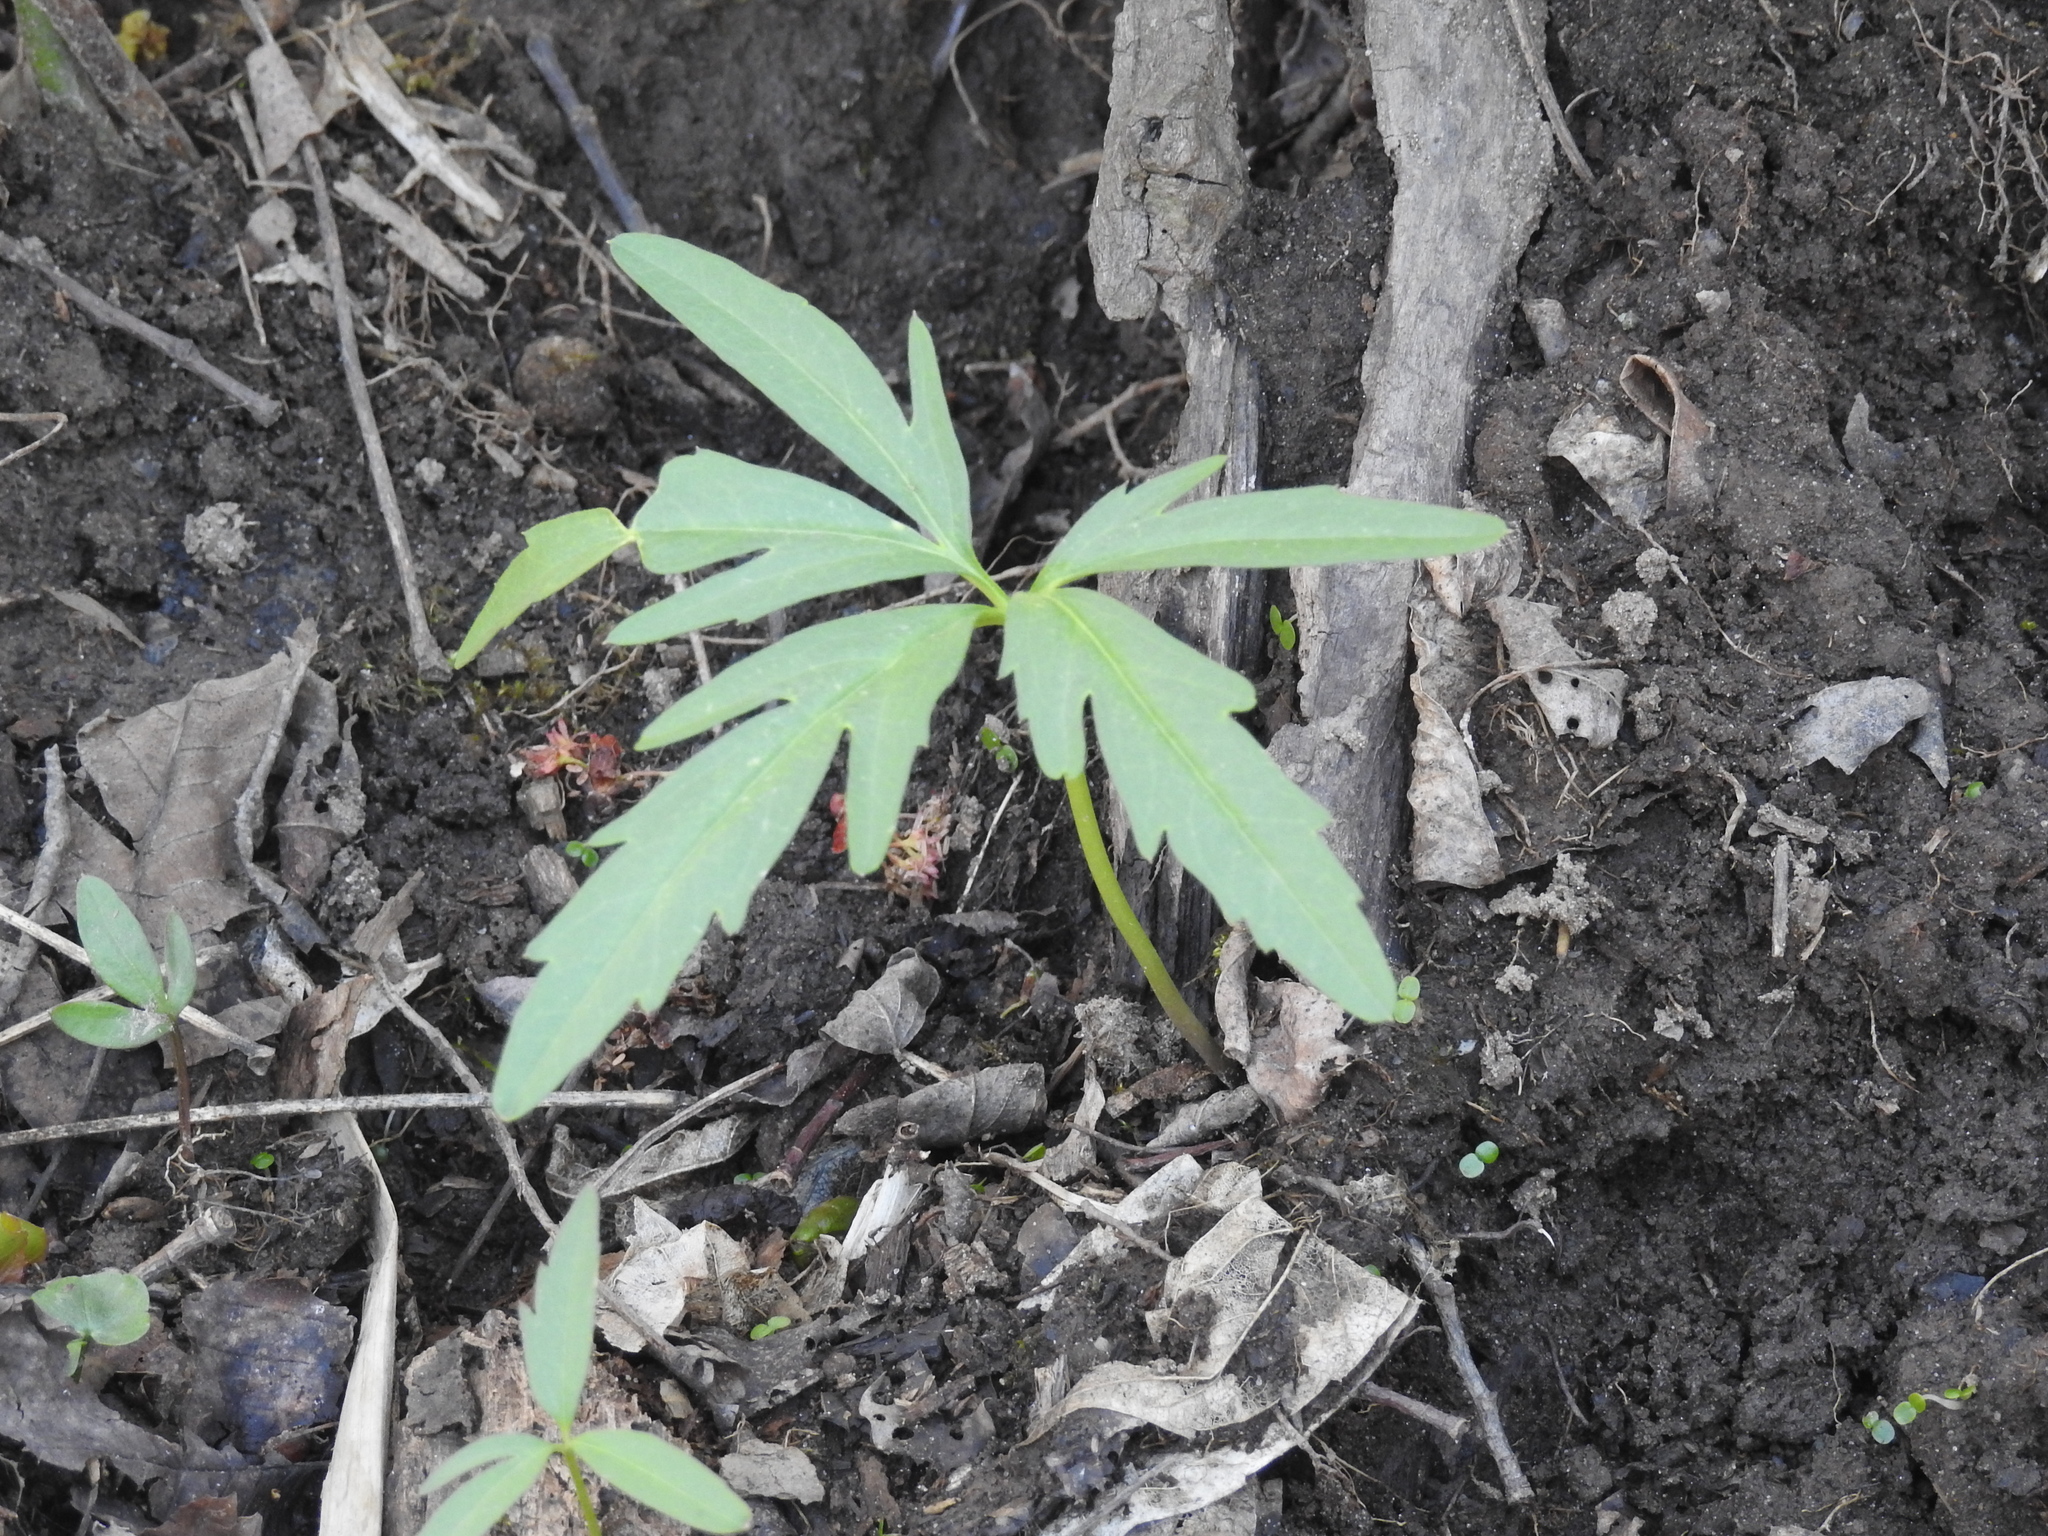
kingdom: Plantae
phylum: Tracheophyta
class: Magnoliopsida
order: Brassicales
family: Brassicaceae
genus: Cardamine
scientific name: Cardamine concatenata
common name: Cut-leaf toothcup
